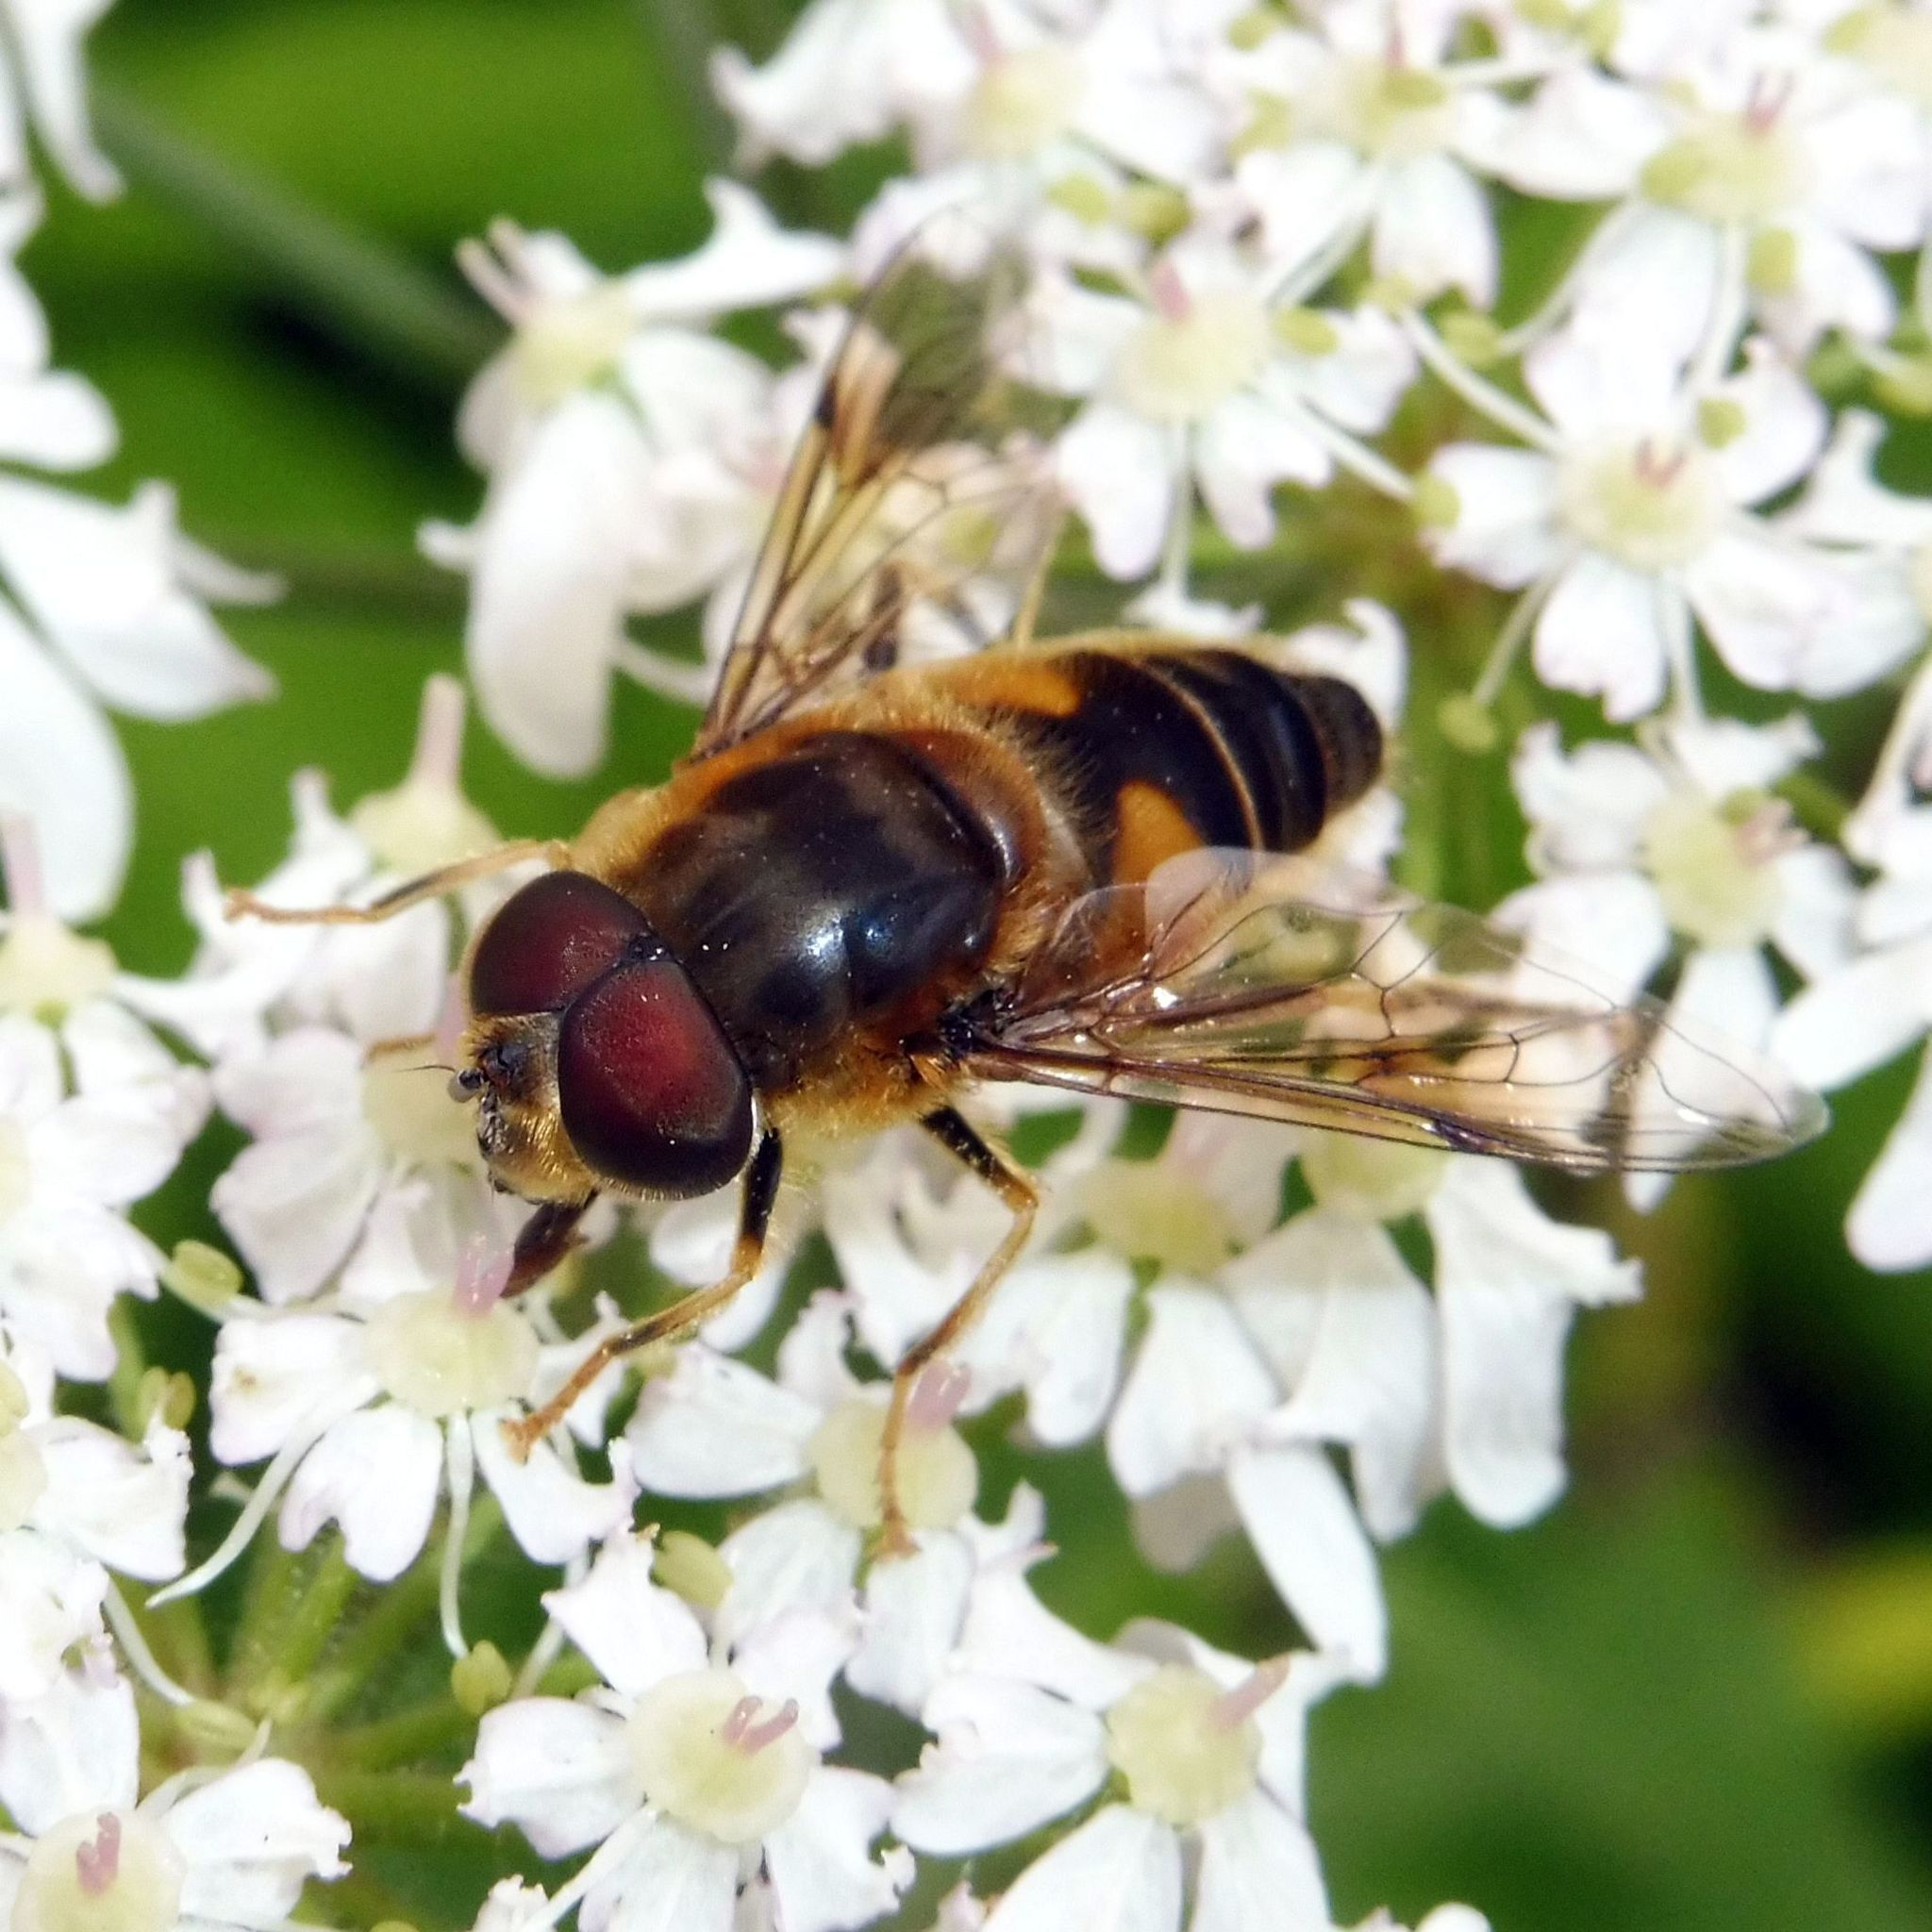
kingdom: Animalia
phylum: Arthropoda
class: Insecta
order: Diptera
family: Syrphidae
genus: Eristalis
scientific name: Eristalis pertinax
